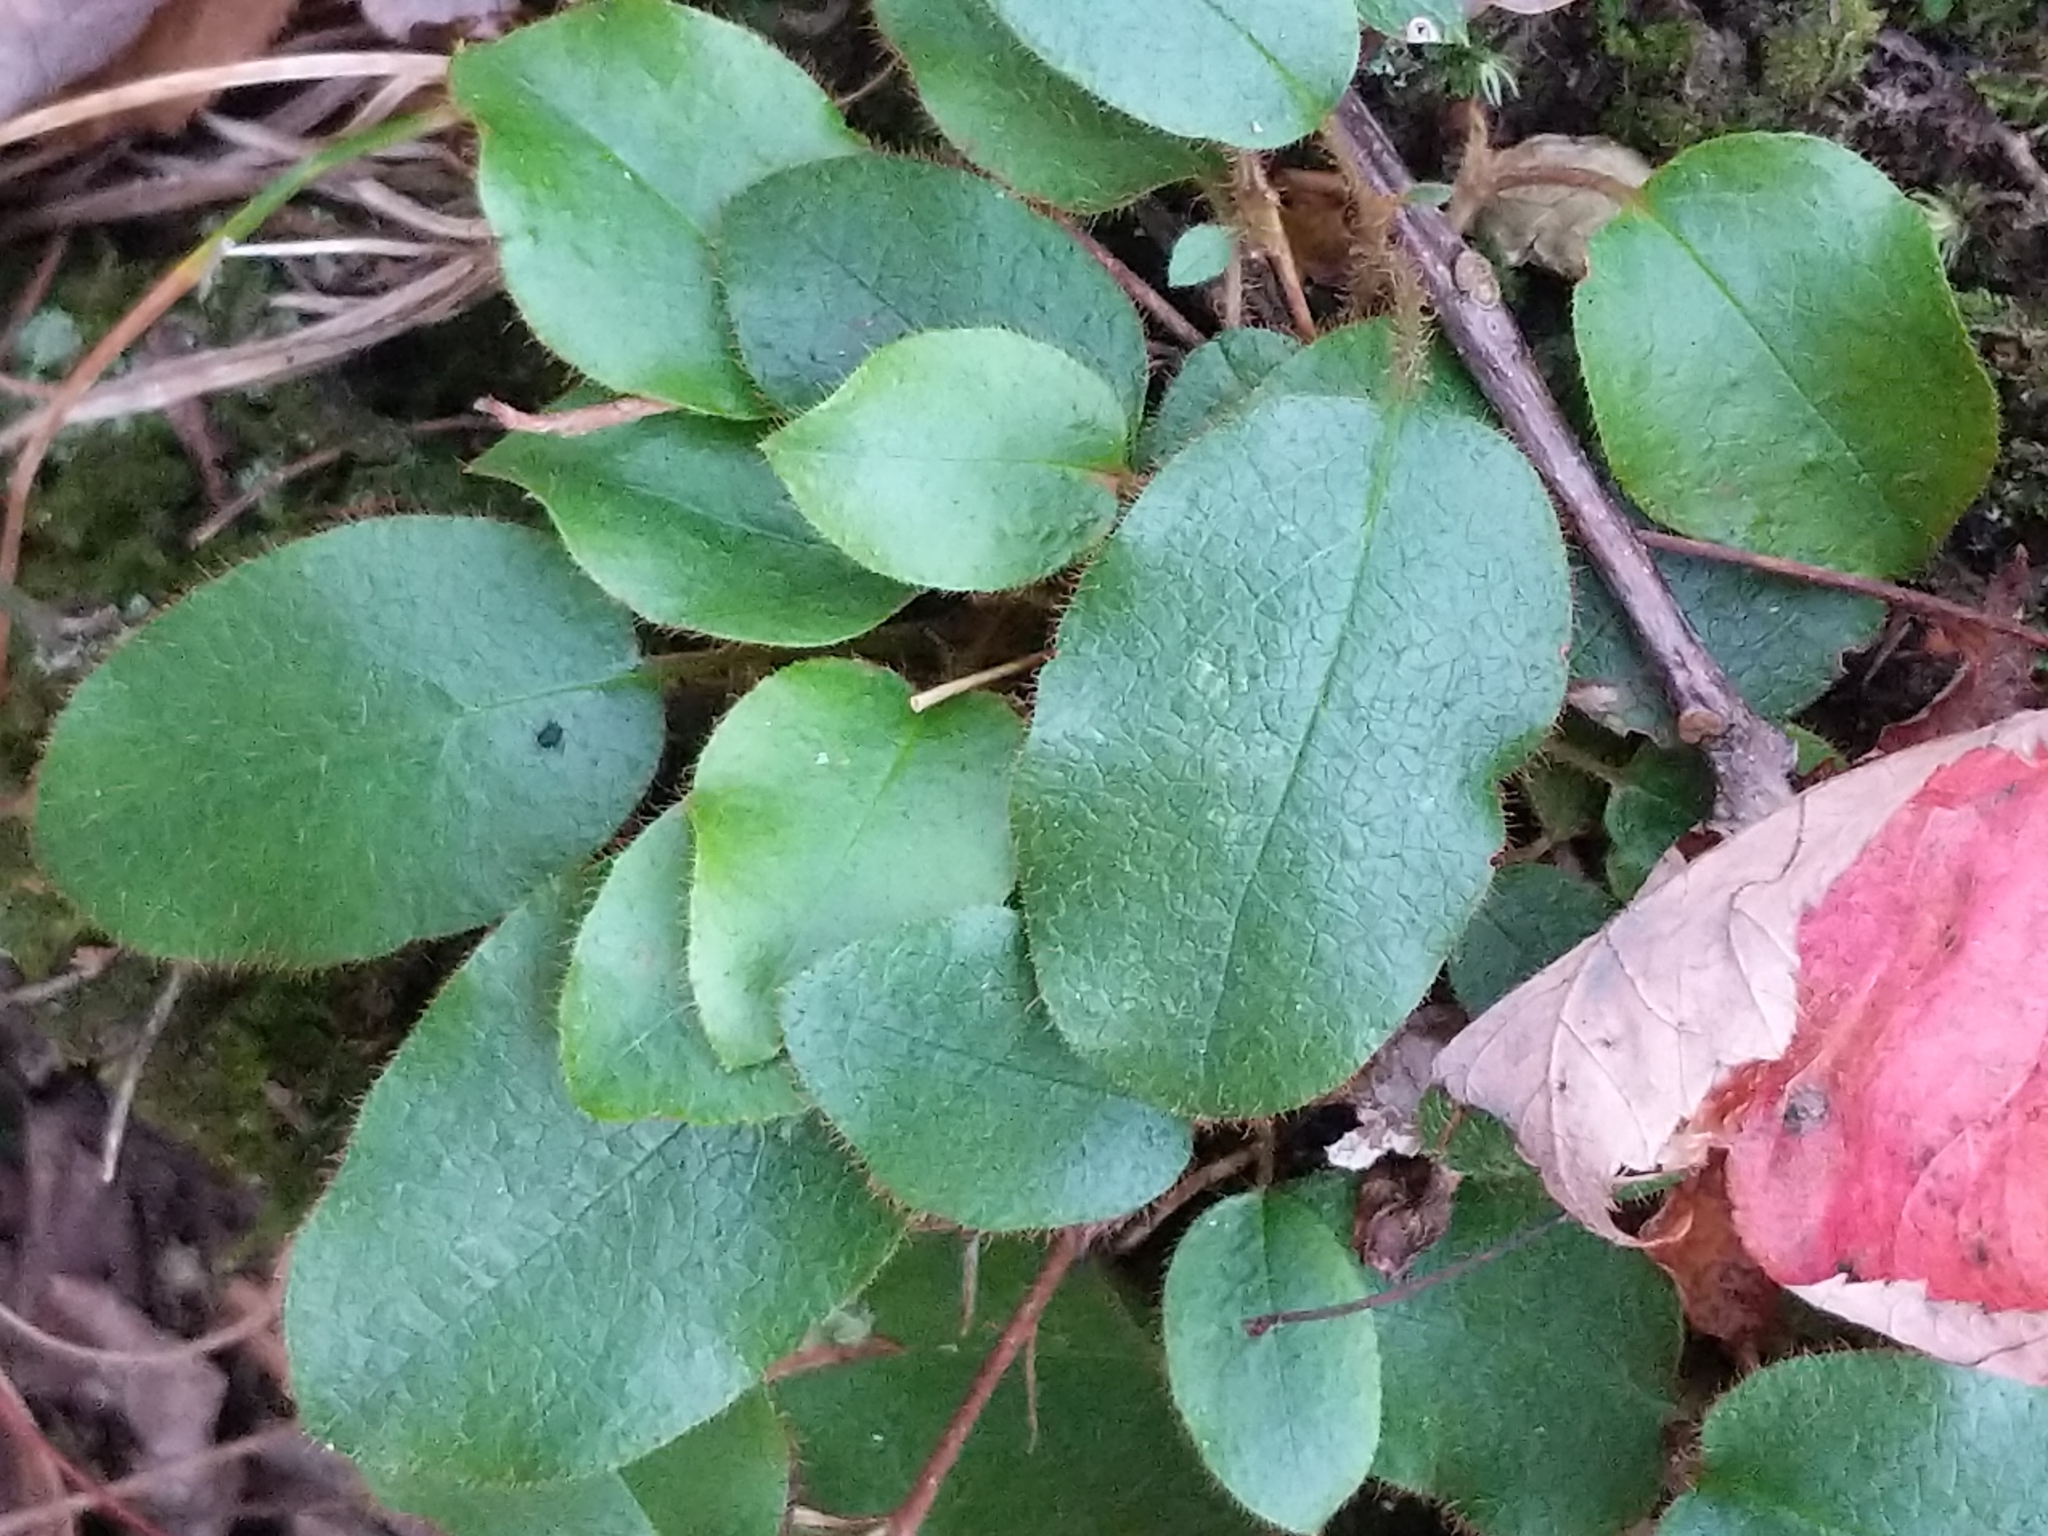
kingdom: Plantae
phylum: Tracheophyta
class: Magnoliopsida
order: Ericales
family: Ericaceae
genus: Epigaea
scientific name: Epigaea repens
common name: Gravelroot
